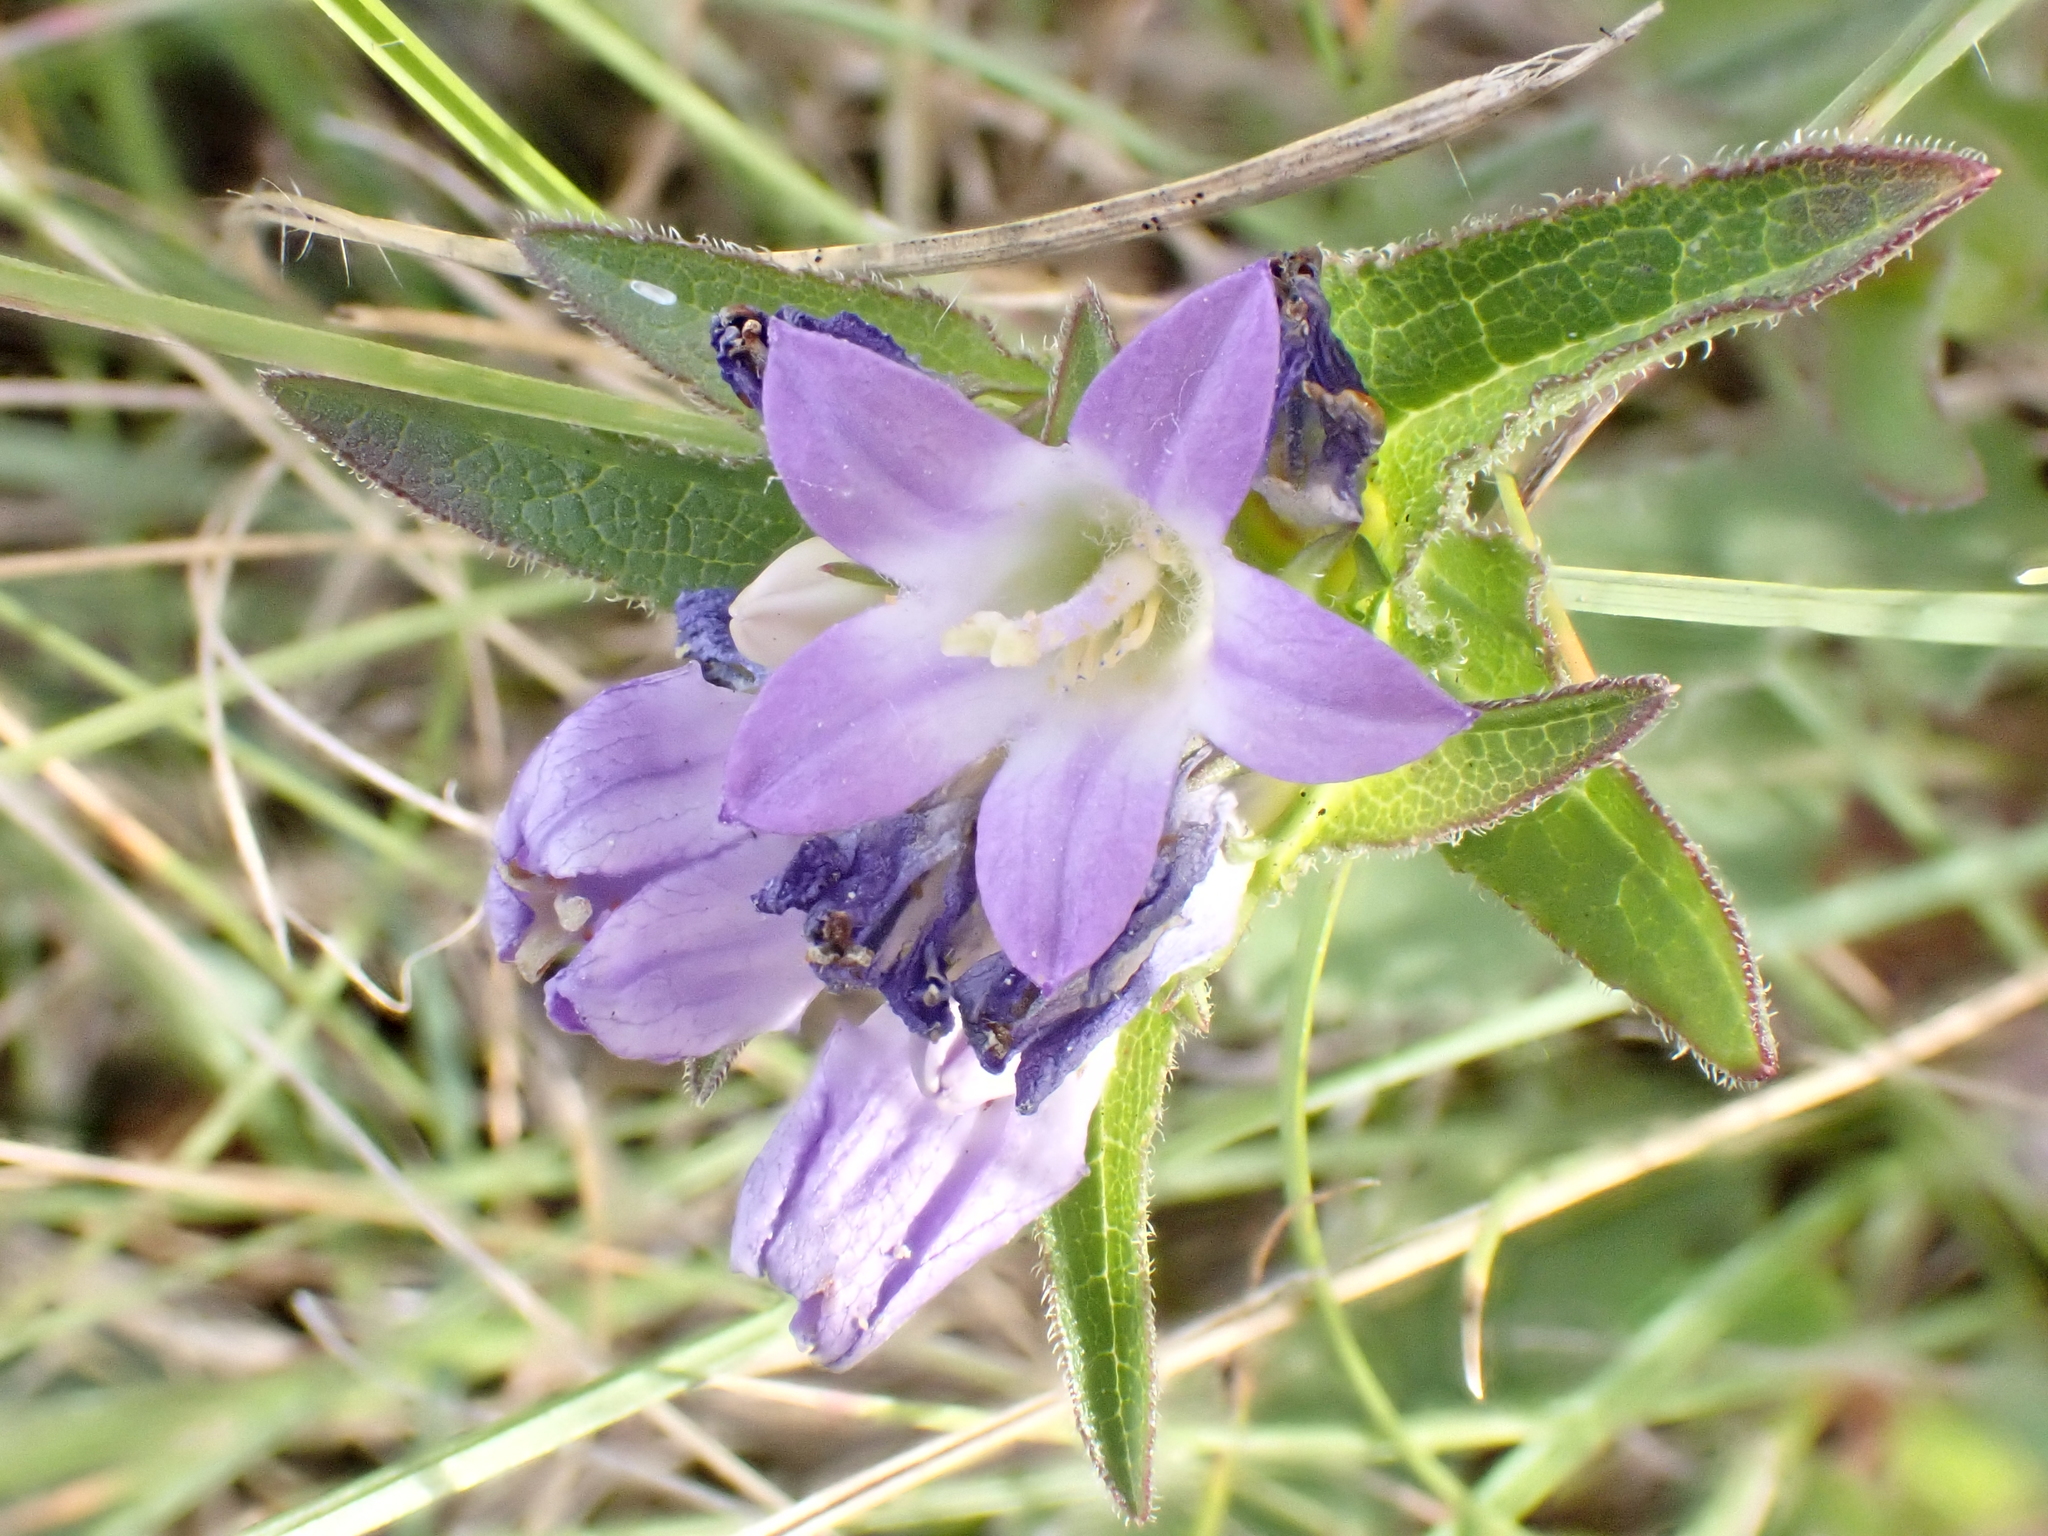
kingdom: Plantae
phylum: Tracheophyta
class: Magnoliopsida
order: Asterales
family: Campanulaceae
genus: Campanula
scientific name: Campanula glomerata
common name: Clustered bellflower
